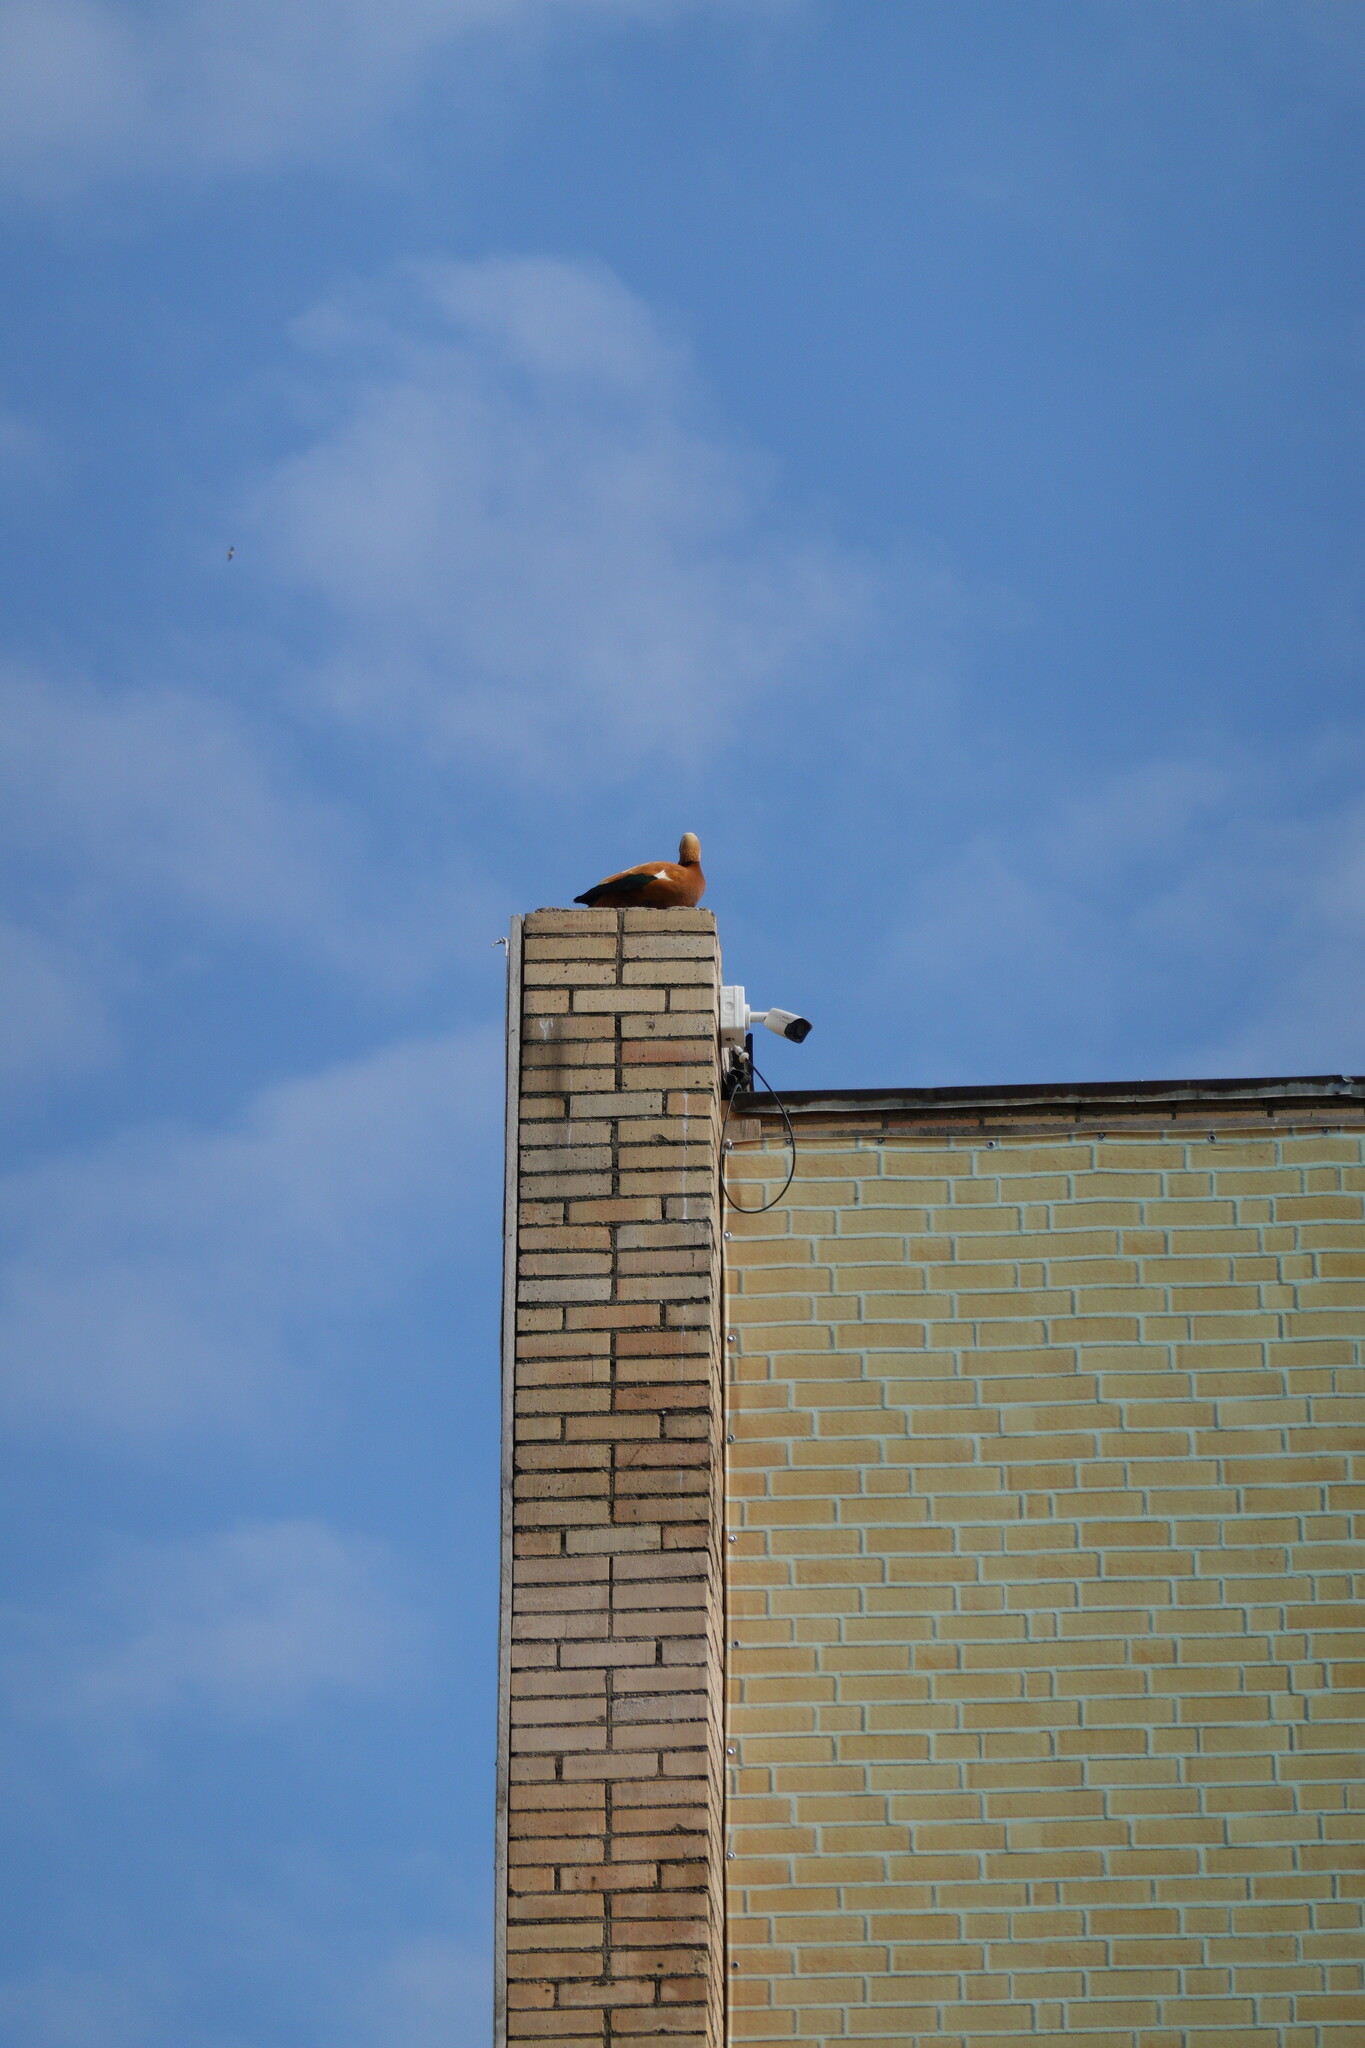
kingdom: Animalia
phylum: Chordata
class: Aves
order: Anseriformes
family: Anatidae
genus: Tadorna
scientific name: Tadorna ferruginea
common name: Ruddy shelduck
